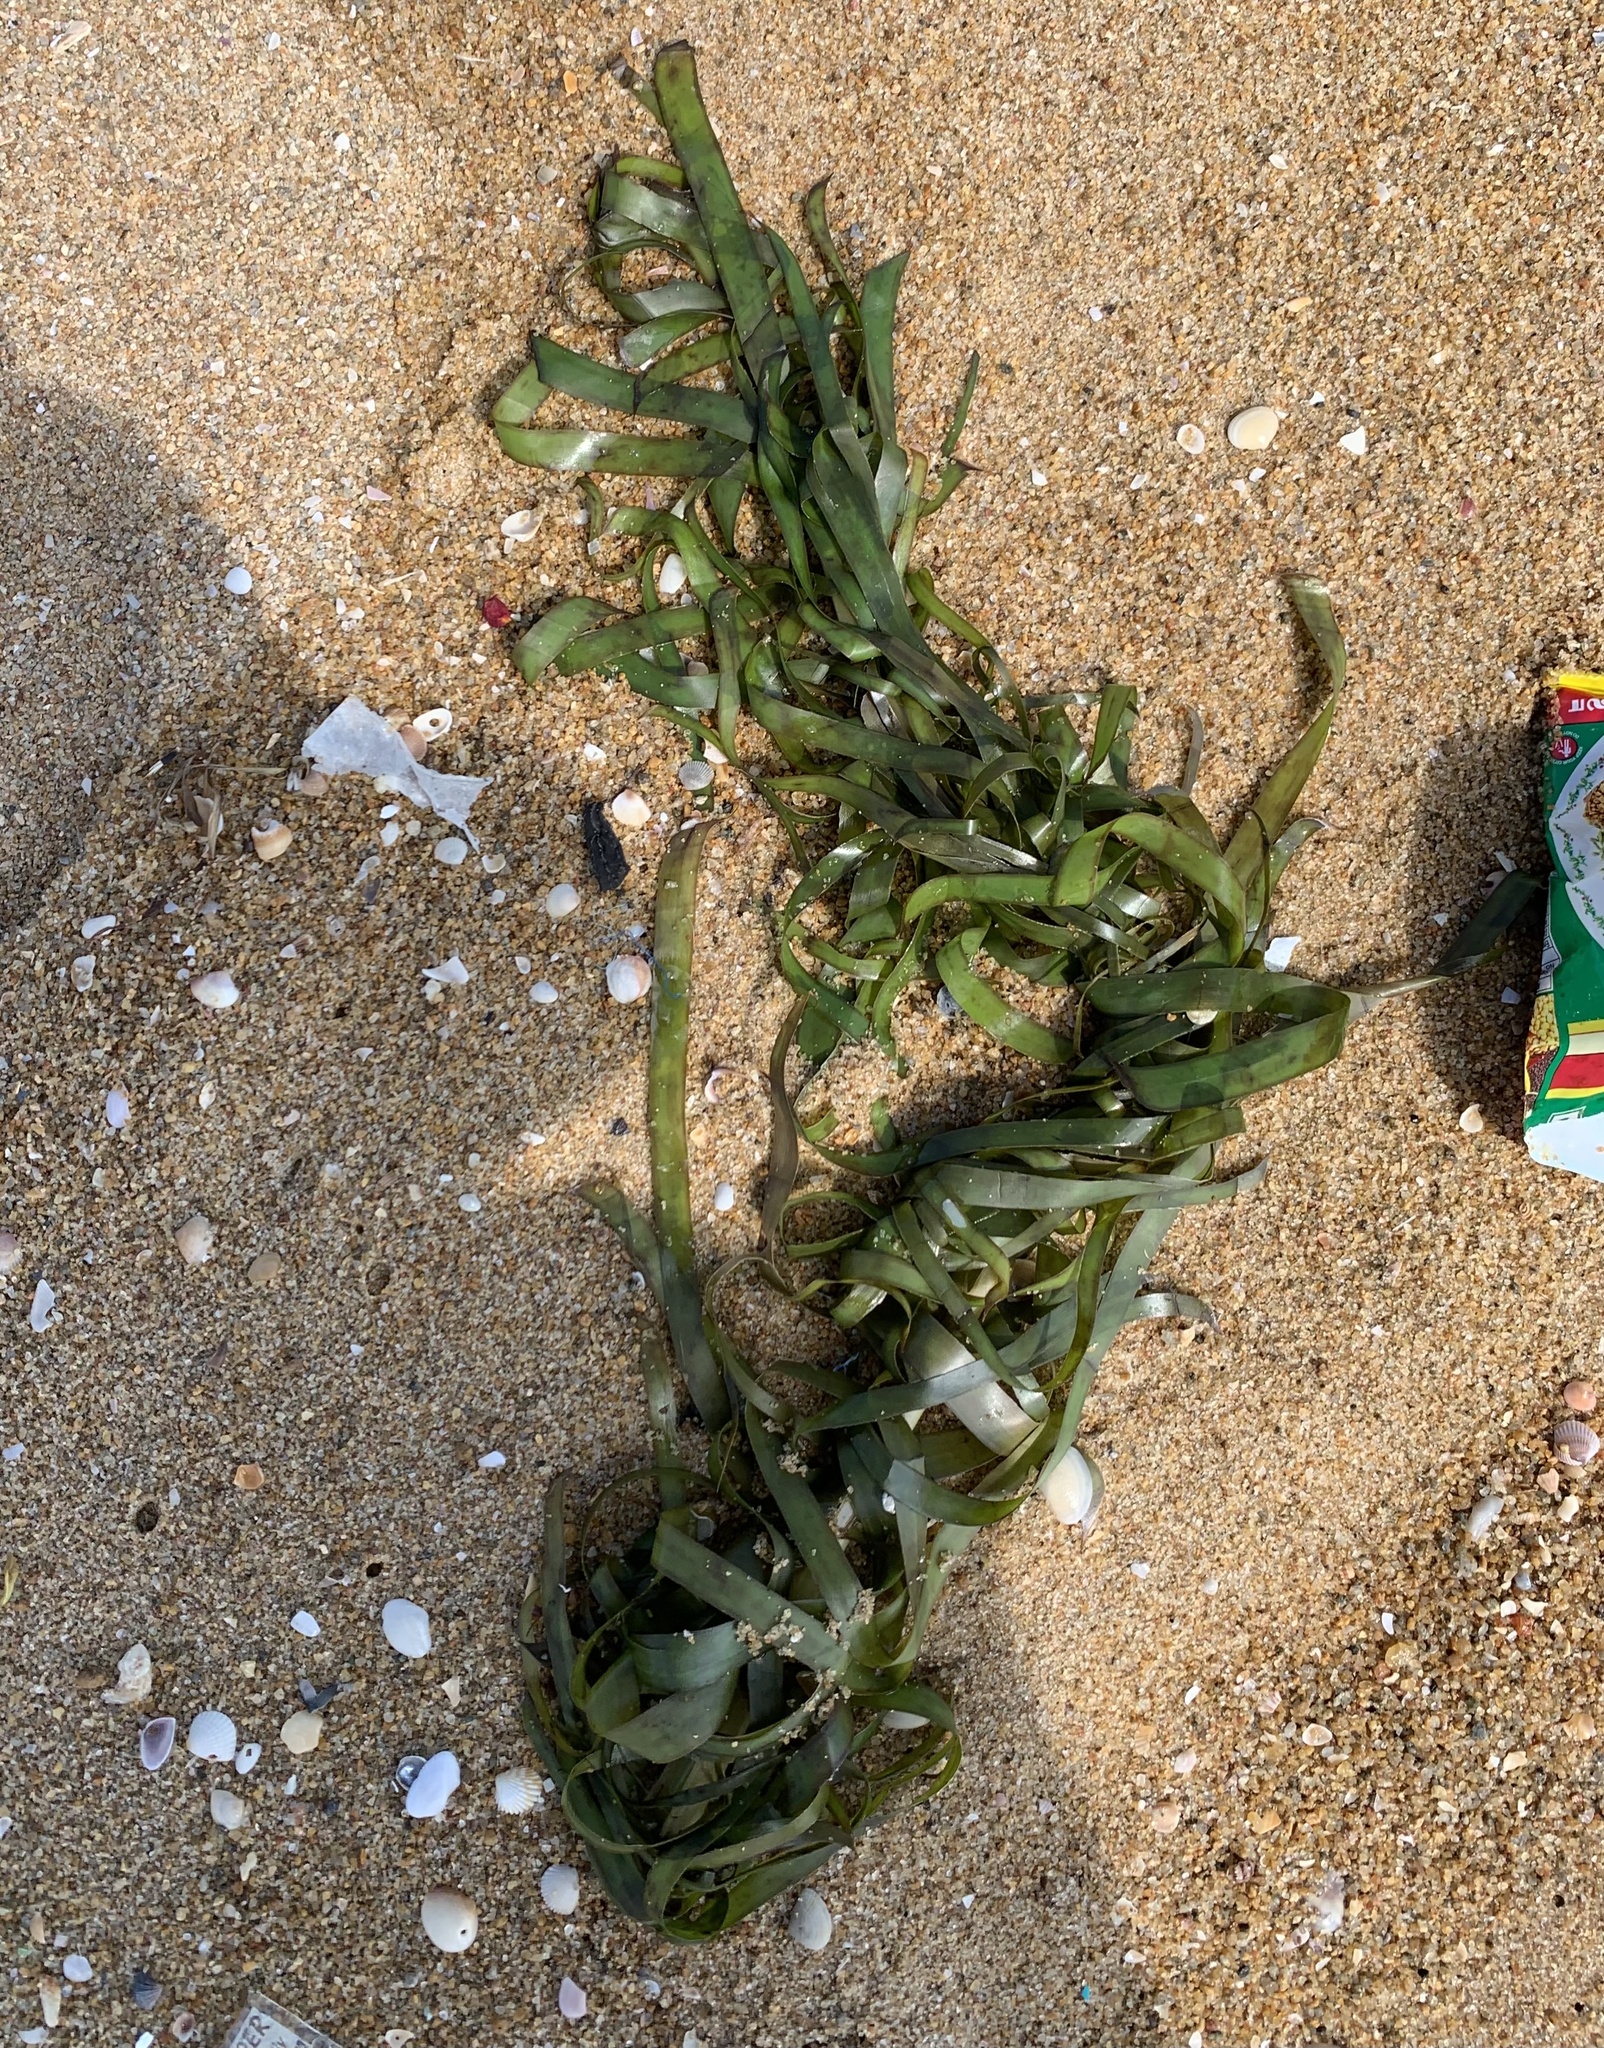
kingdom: Plantae
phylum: Tracheophyta
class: Liliopsida
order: Alismatales
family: Hydrocharitaceae
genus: Enhalus
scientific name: Enhalus acoroides
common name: Species code: ea
